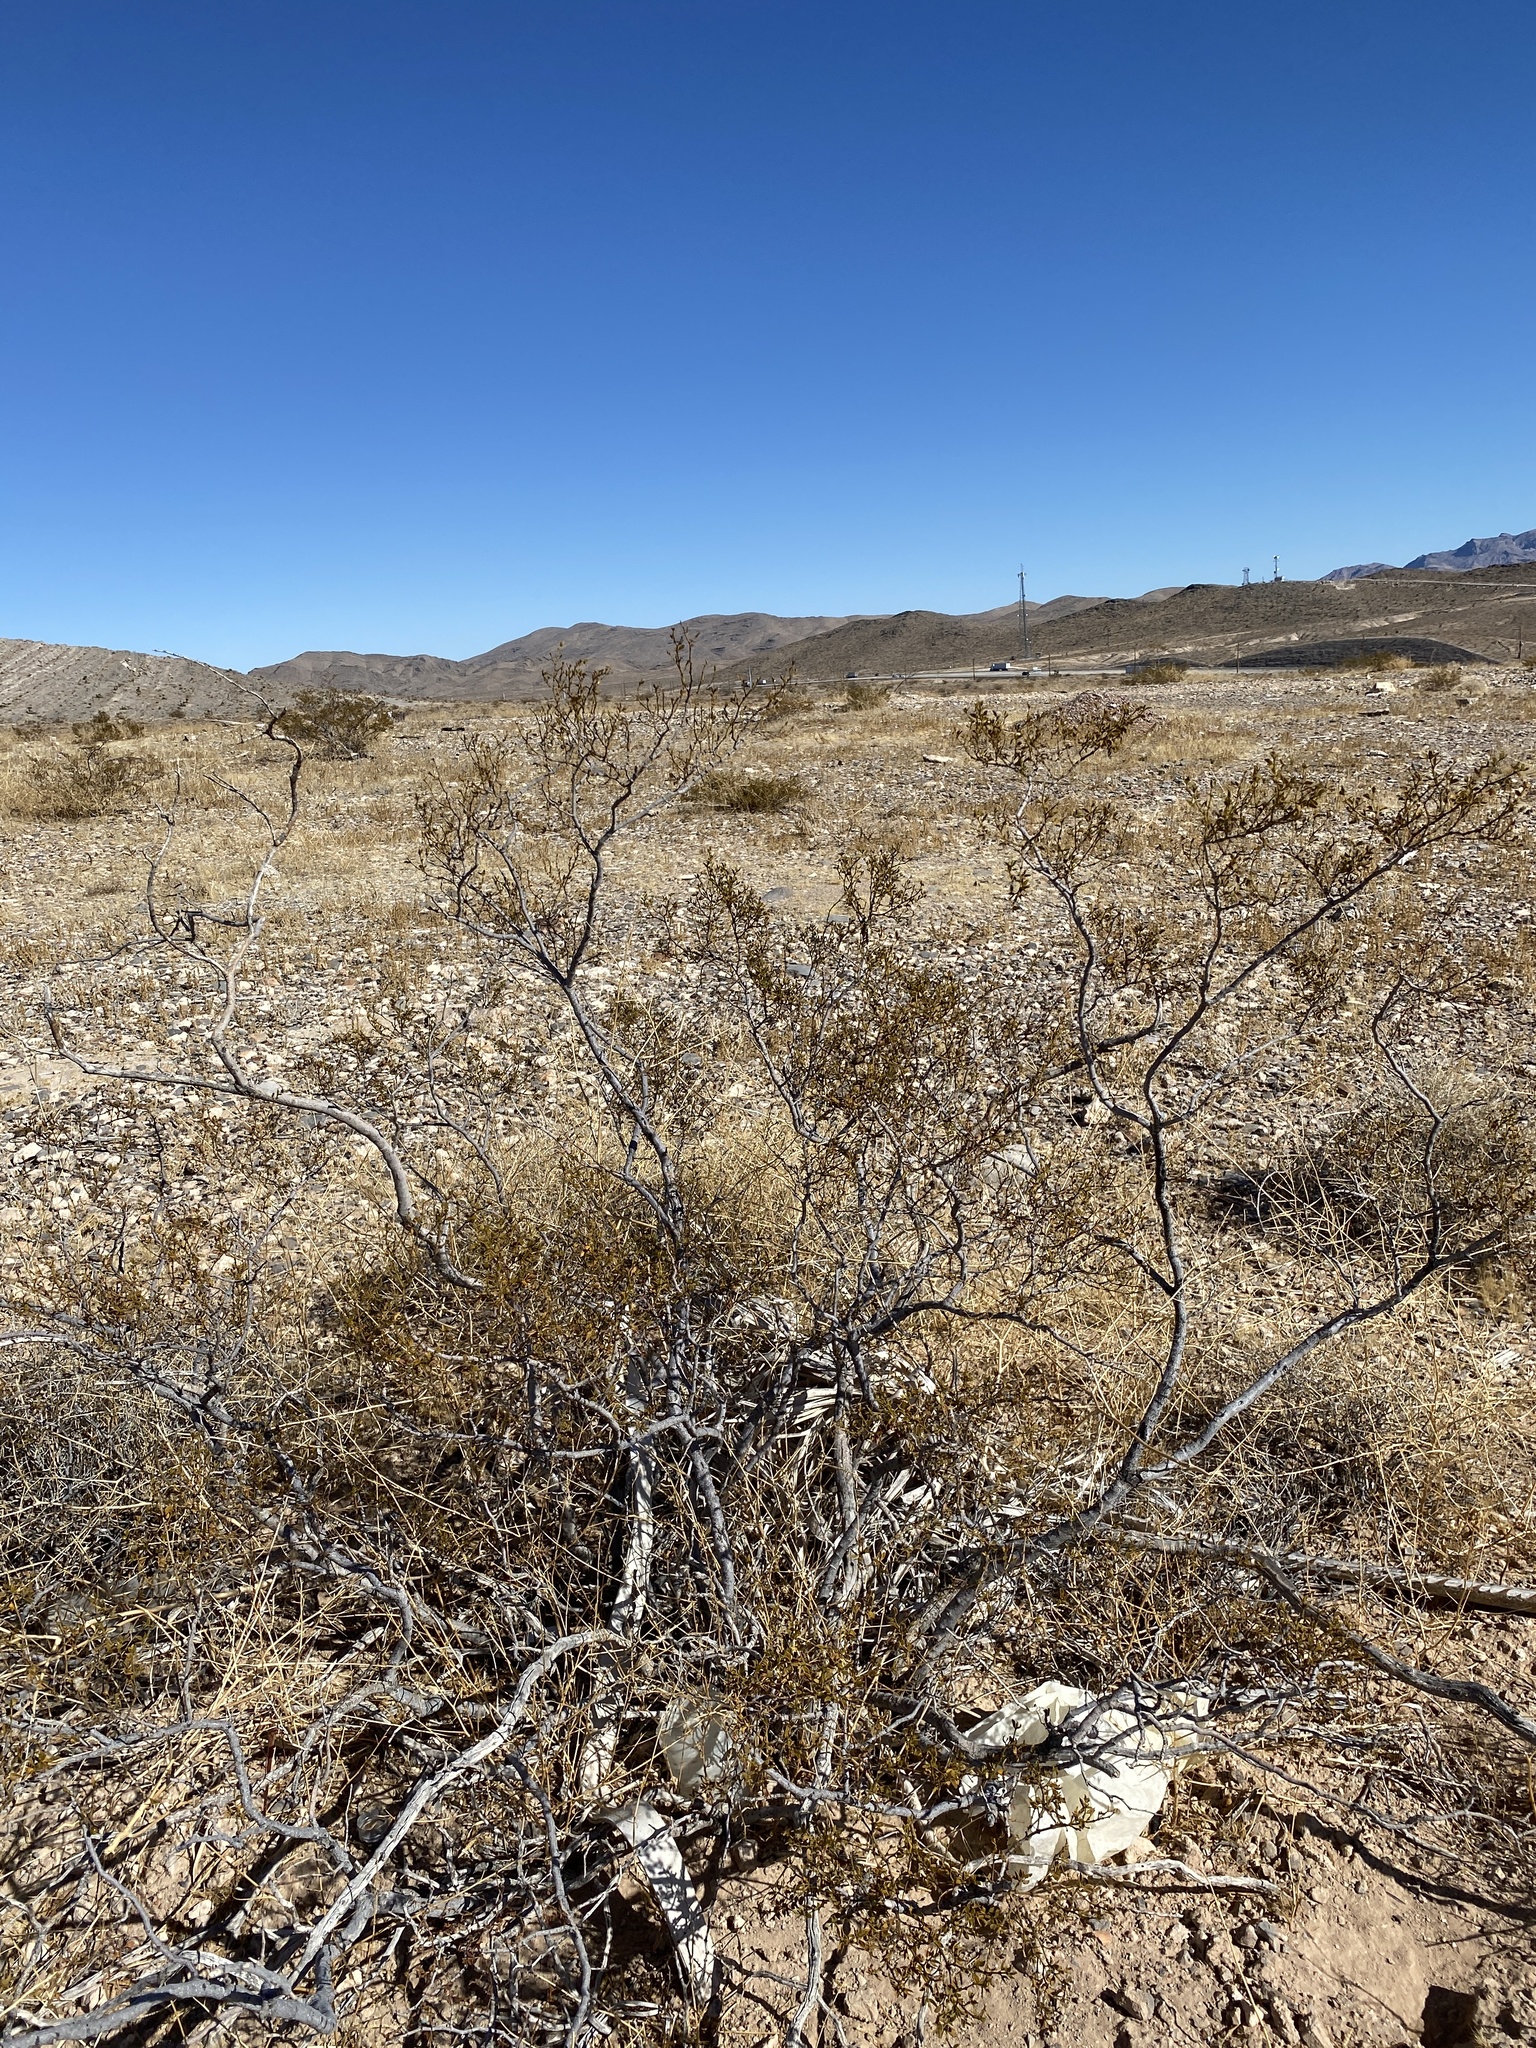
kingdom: Plantae
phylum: Tracheophyta
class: Magnoliopsida
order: Zygophyllales
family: Zygophyllaceae
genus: Larrea
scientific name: Larrea tridentata
